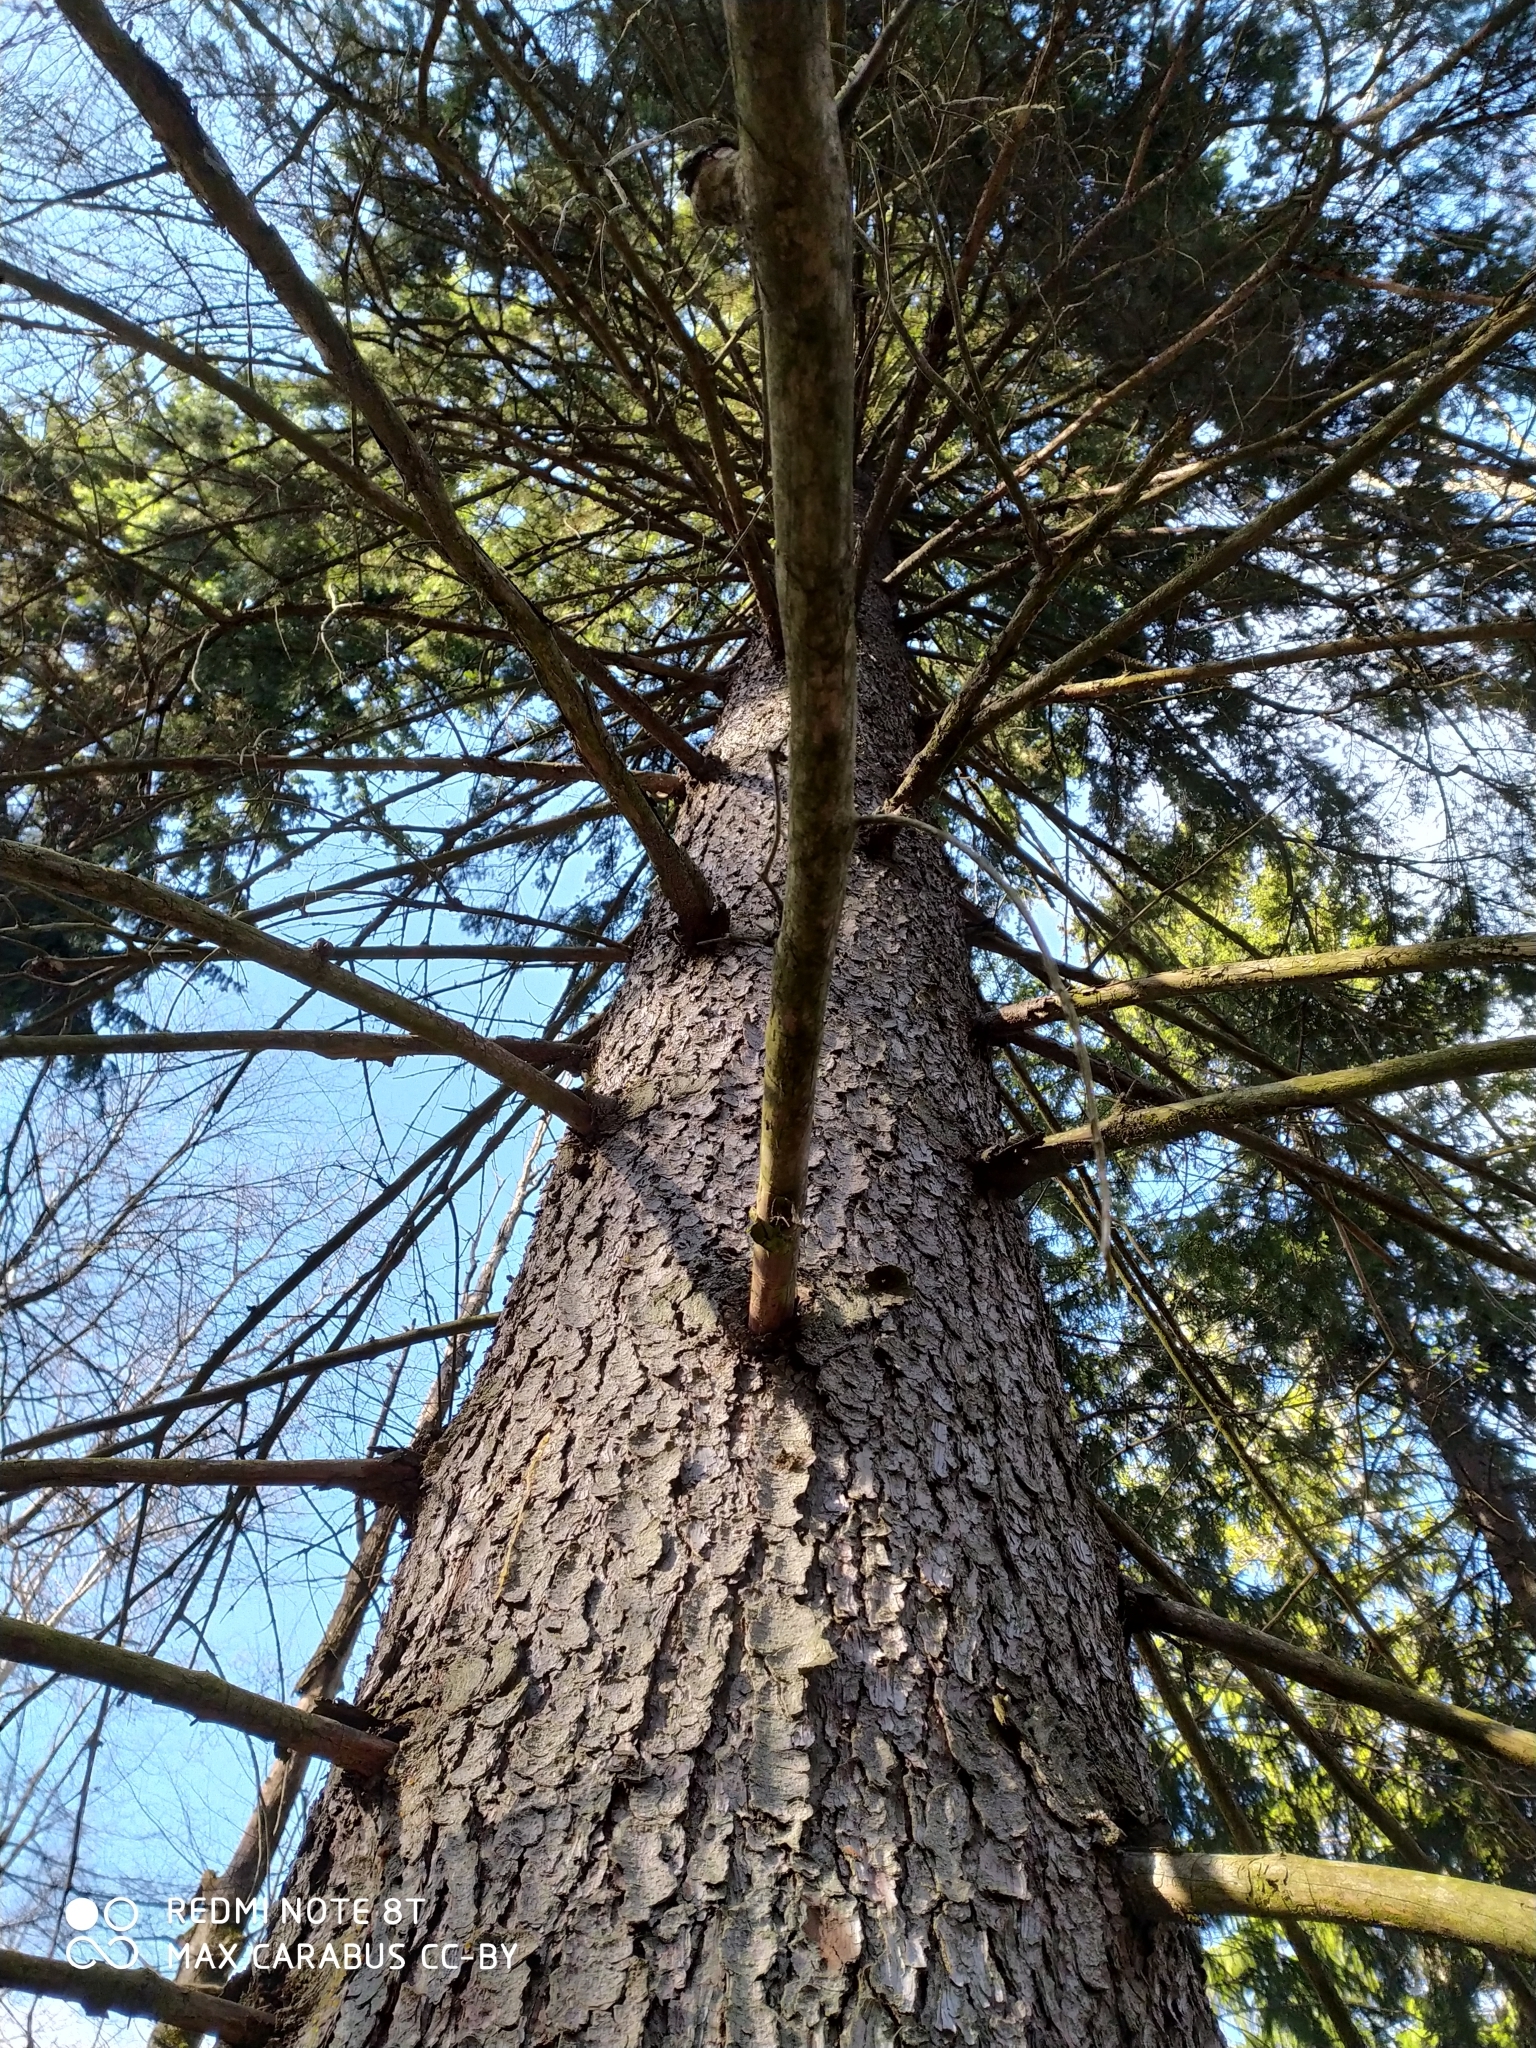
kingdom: Plantae
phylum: Tracheophyta
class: Pinopsida
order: Pinales
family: Pinaceae
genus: Picea
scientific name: Picea abies
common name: Norway spruce
